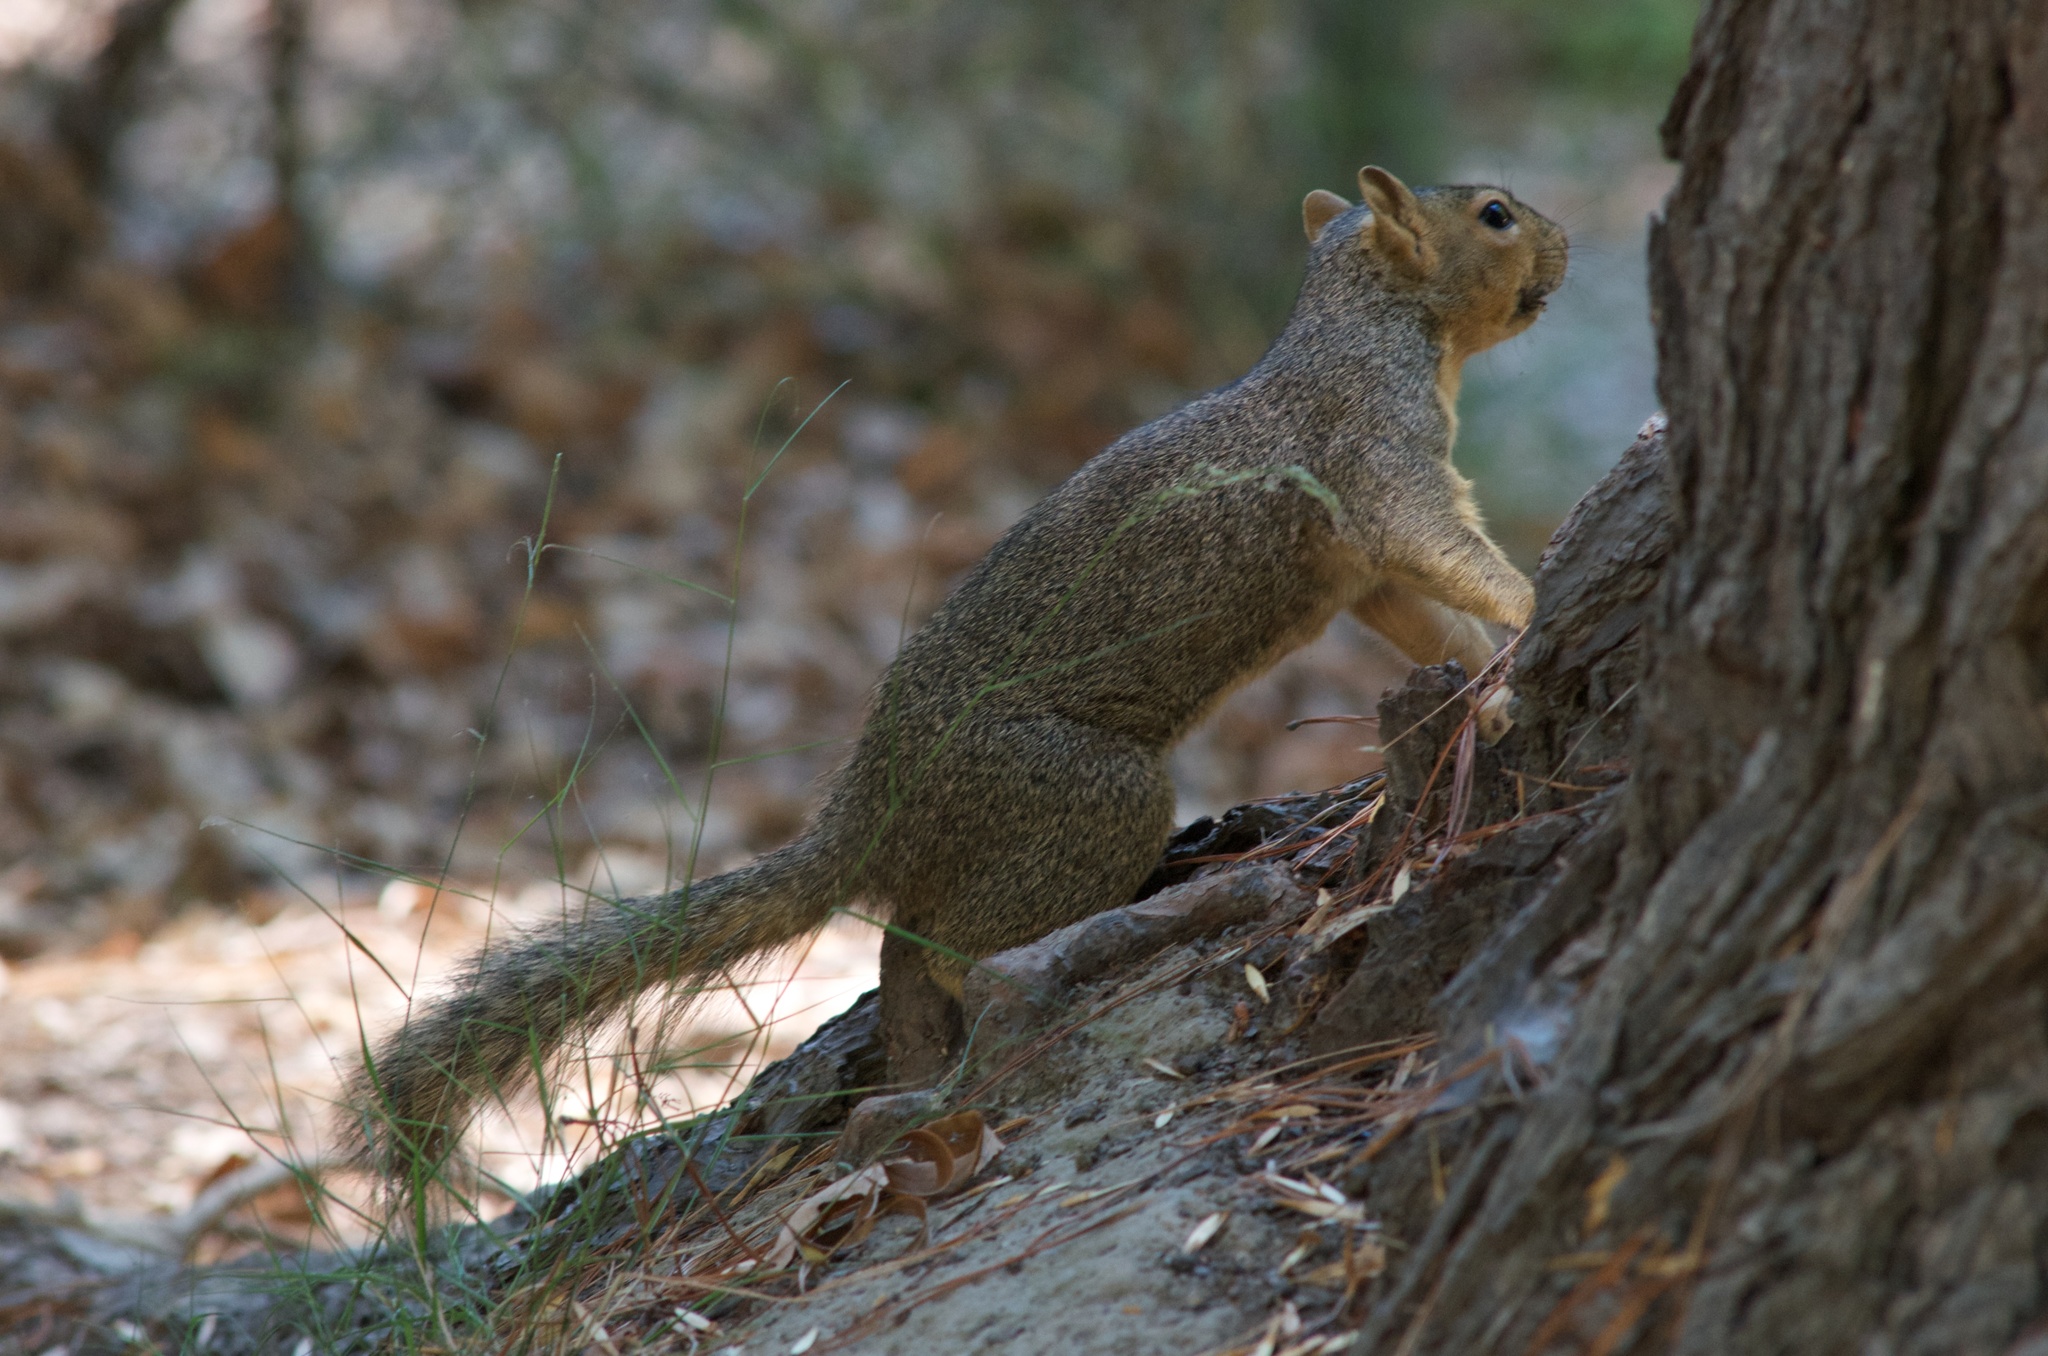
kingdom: Animalia
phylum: Chordata
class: Mammalia
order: Rodentia
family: Sciuridae
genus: Sciurus
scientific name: Sciurus niger
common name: Fox squirrel
